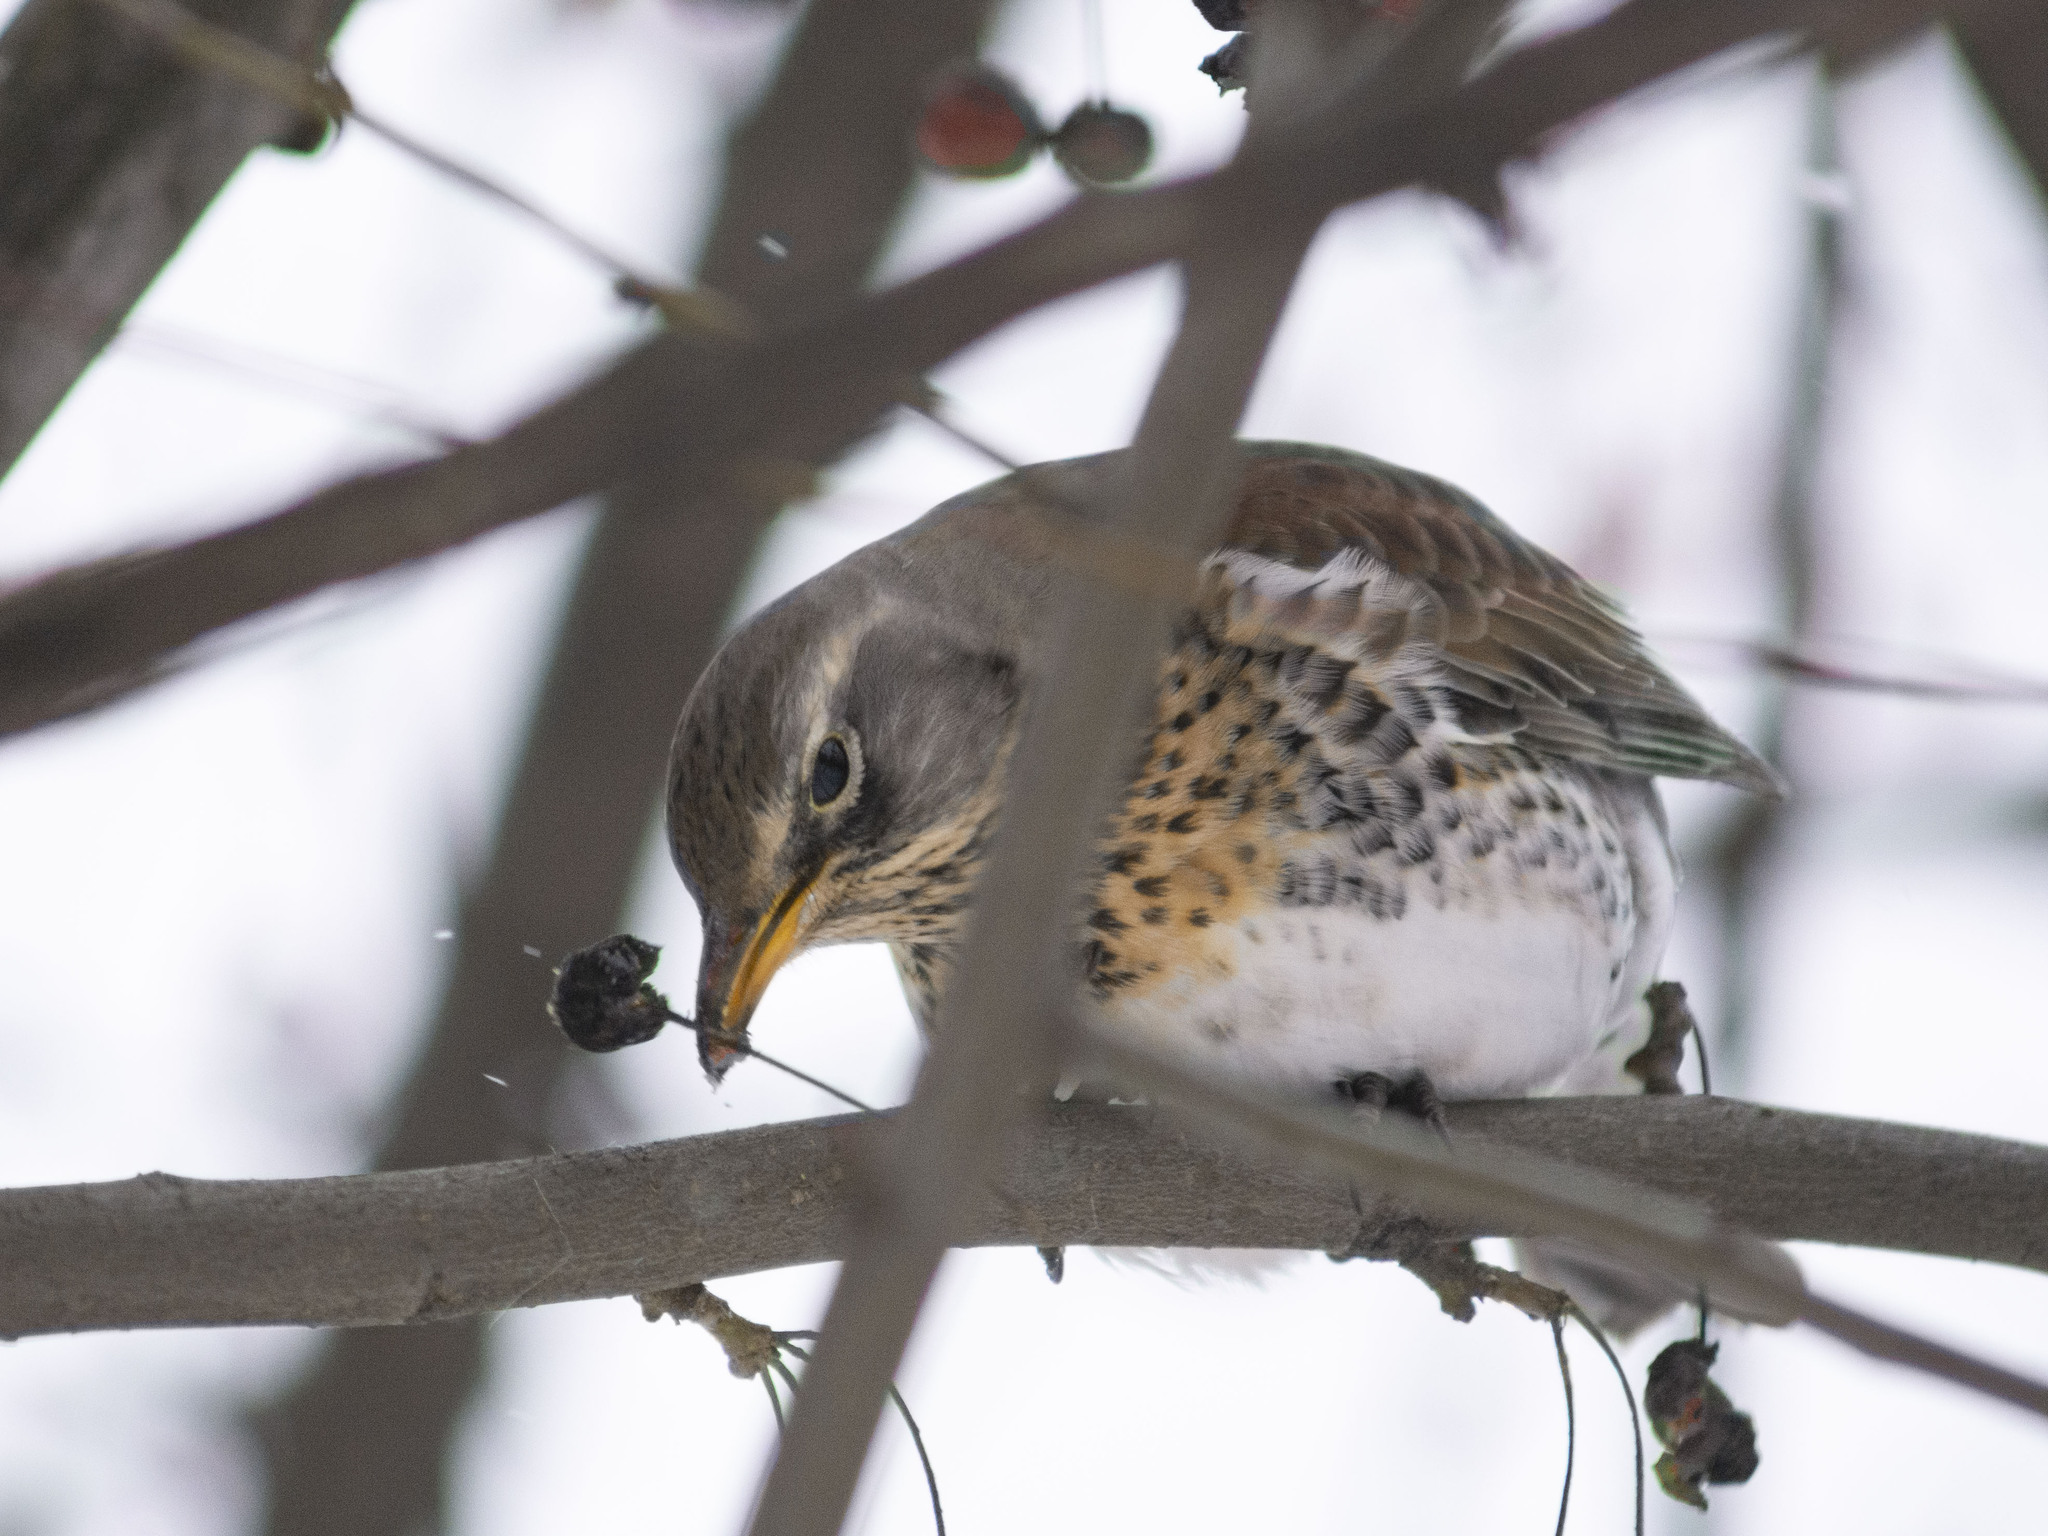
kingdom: Animalia
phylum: Chordata
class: Aves
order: Passeriformes
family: Turdidae
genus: Turdus
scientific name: Turdus pilaris
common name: Fieldfare
